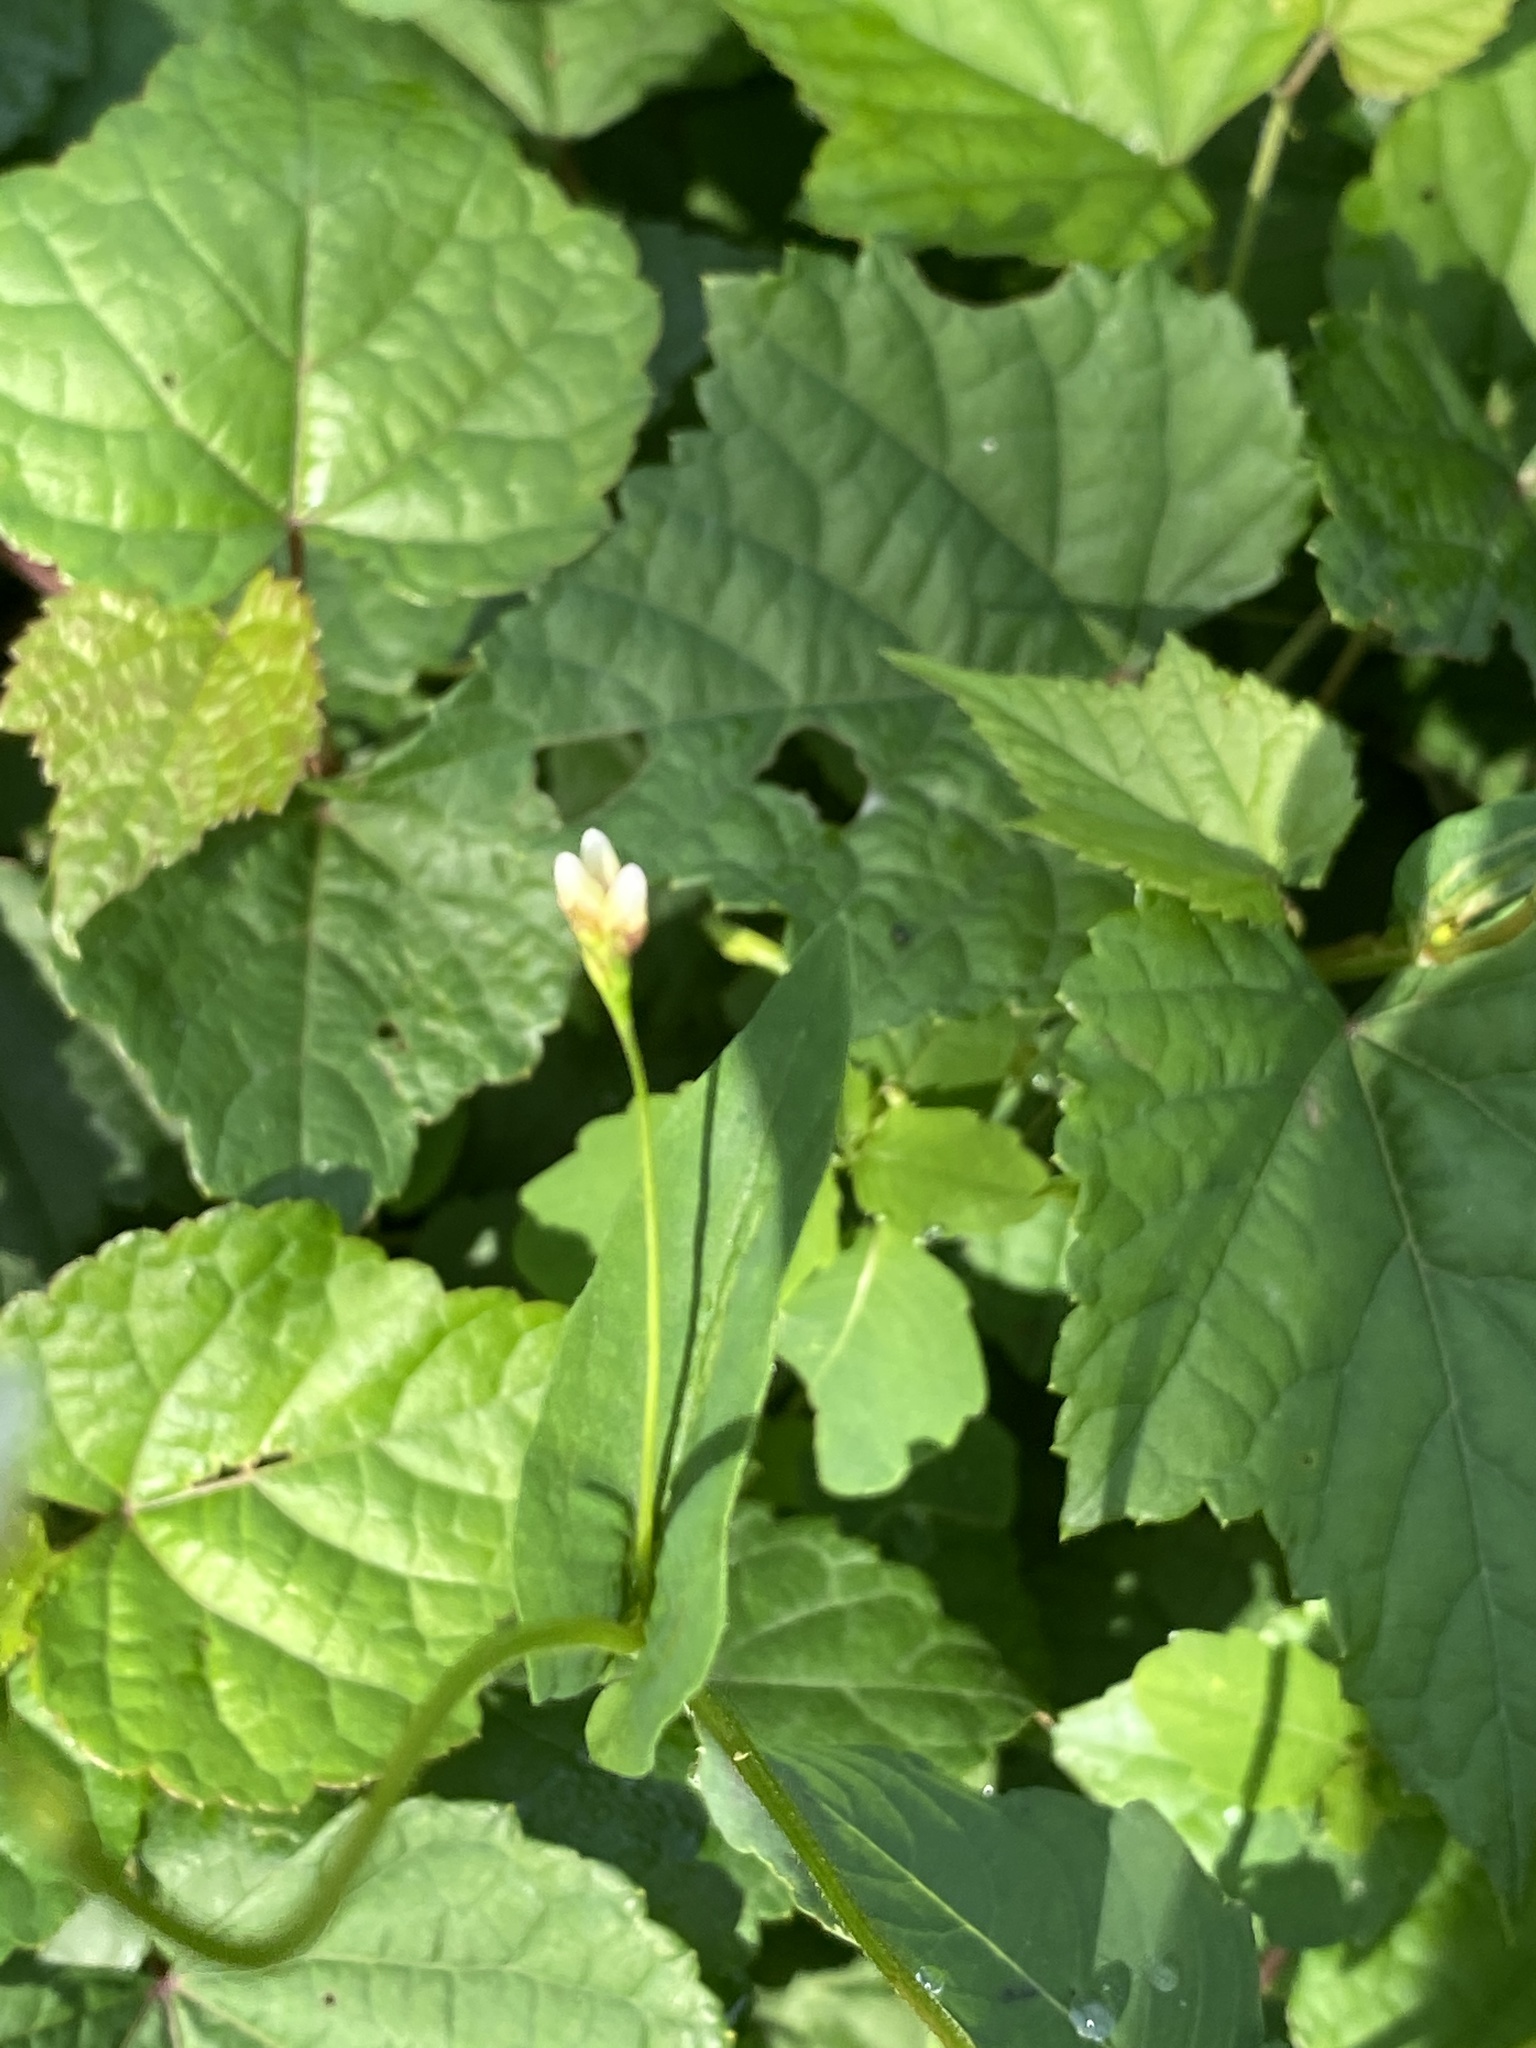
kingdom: Plantae
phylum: Tracheophyta
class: Magnoliopsida
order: Caryophyllales
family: Polygonaceae
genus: Persicaria
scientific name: Persicaria sagittata
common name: American tearthumb
